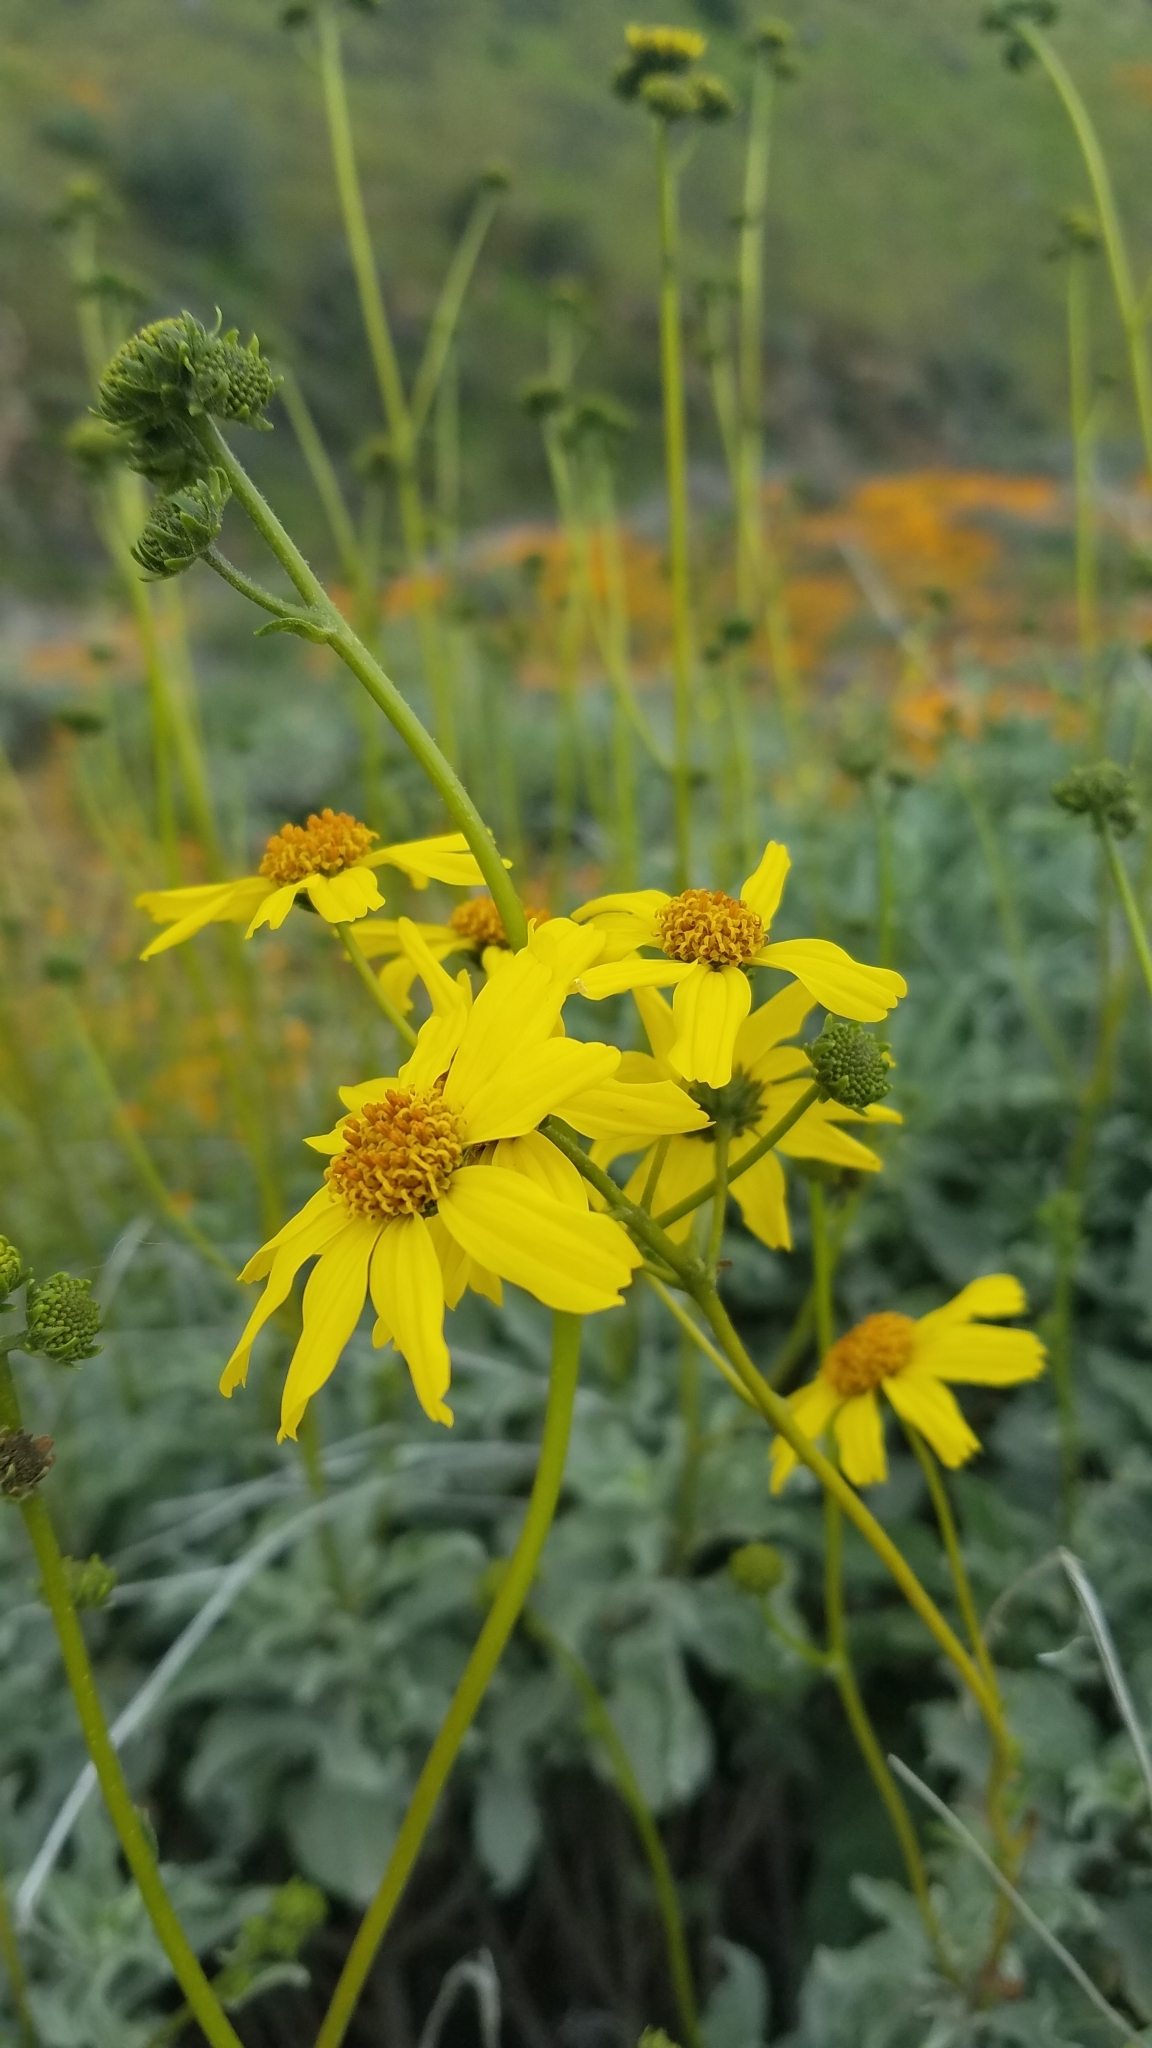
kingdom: Plantae
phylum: Tracheophyta
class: Magnoliopsida
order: Asterales
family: Asteraceae
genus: Encelia
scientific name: Encelia farinosa
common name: Brittlebush
